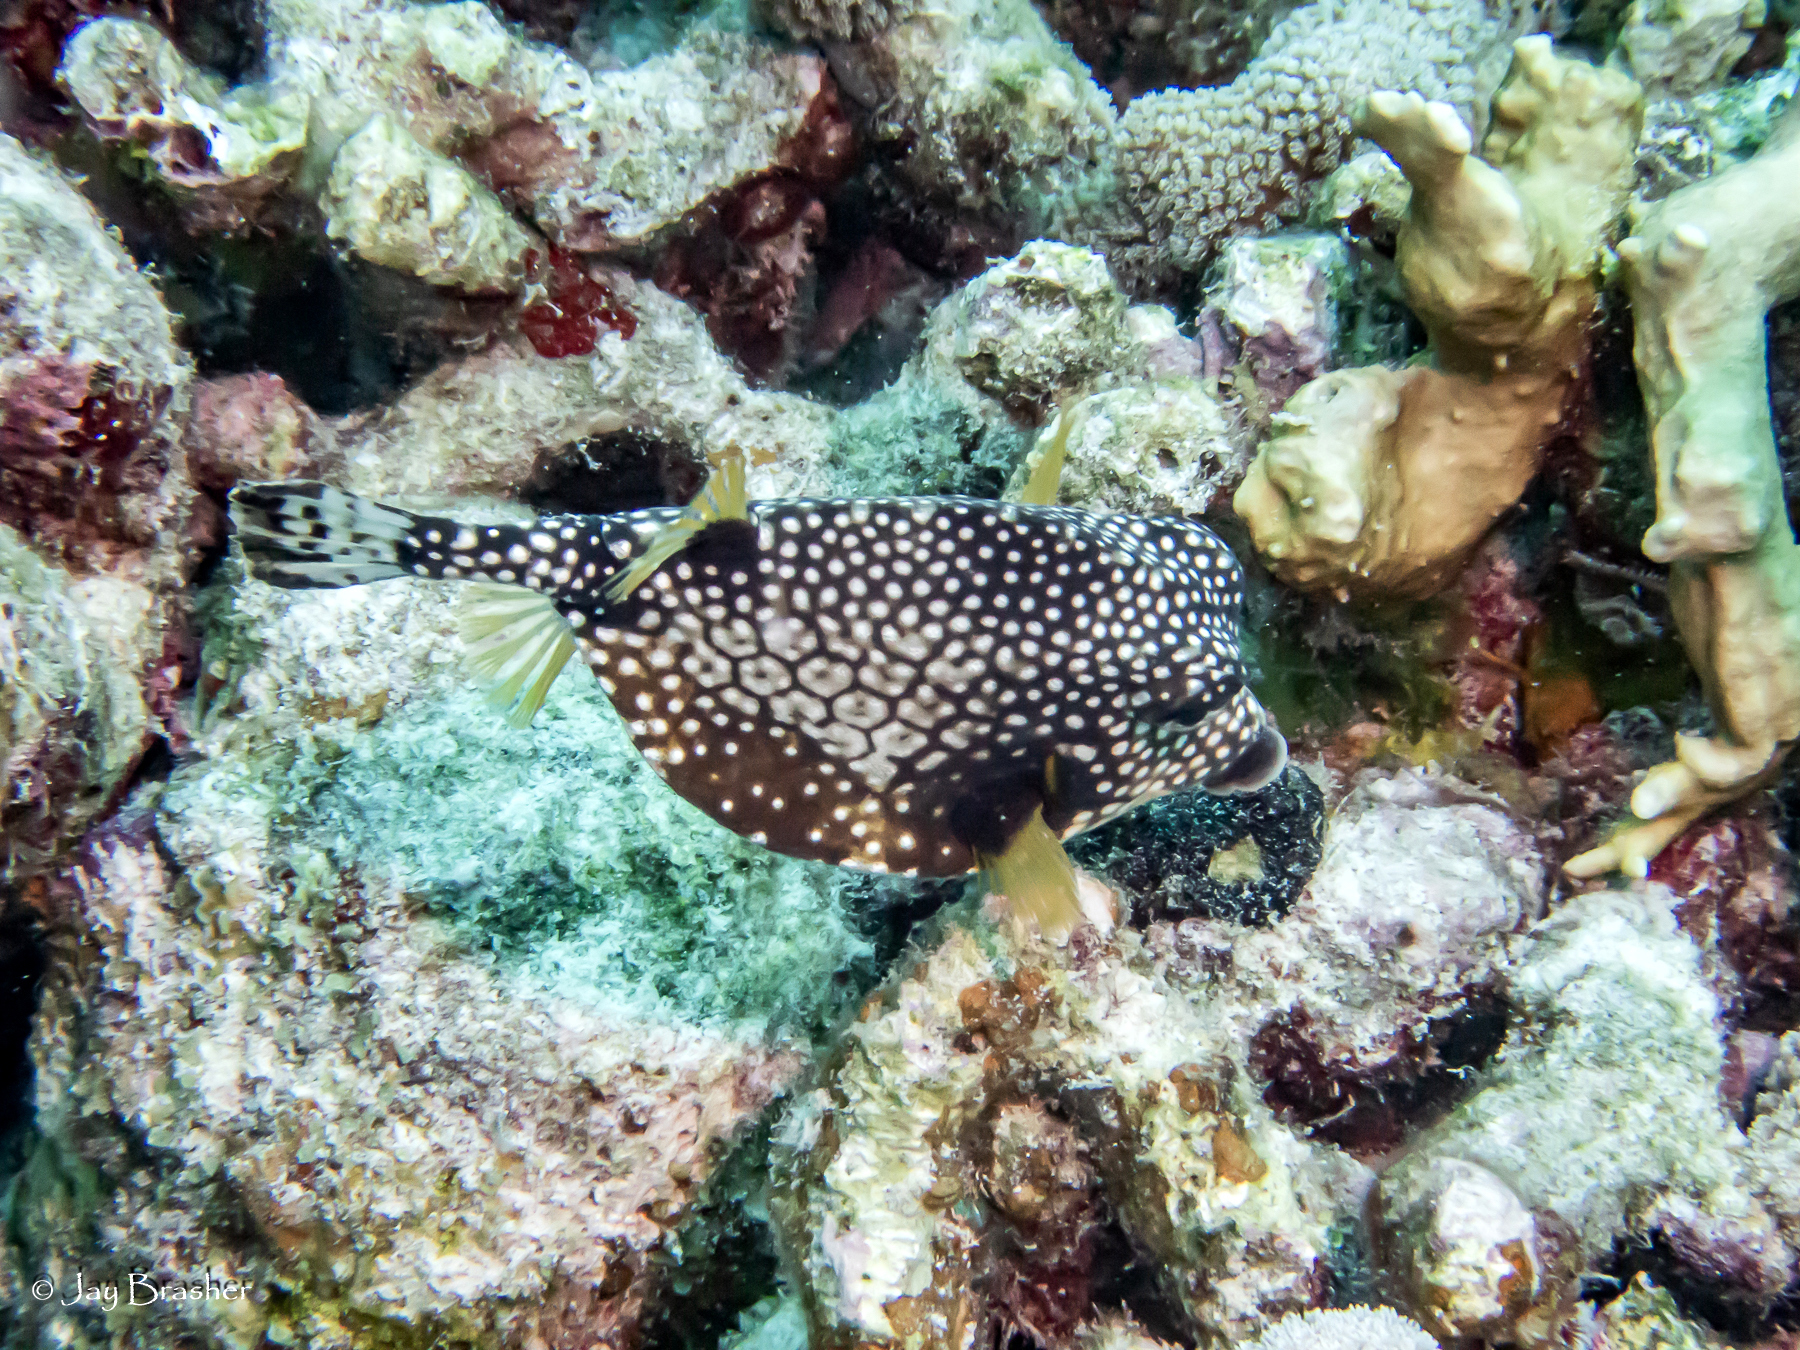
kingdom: Animalia
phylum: Chordata
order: Tetraodontiformes
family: Ostraciidae
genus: Lactophrys
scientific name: Lactophrys triqueter
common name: Smooth trunkfish
